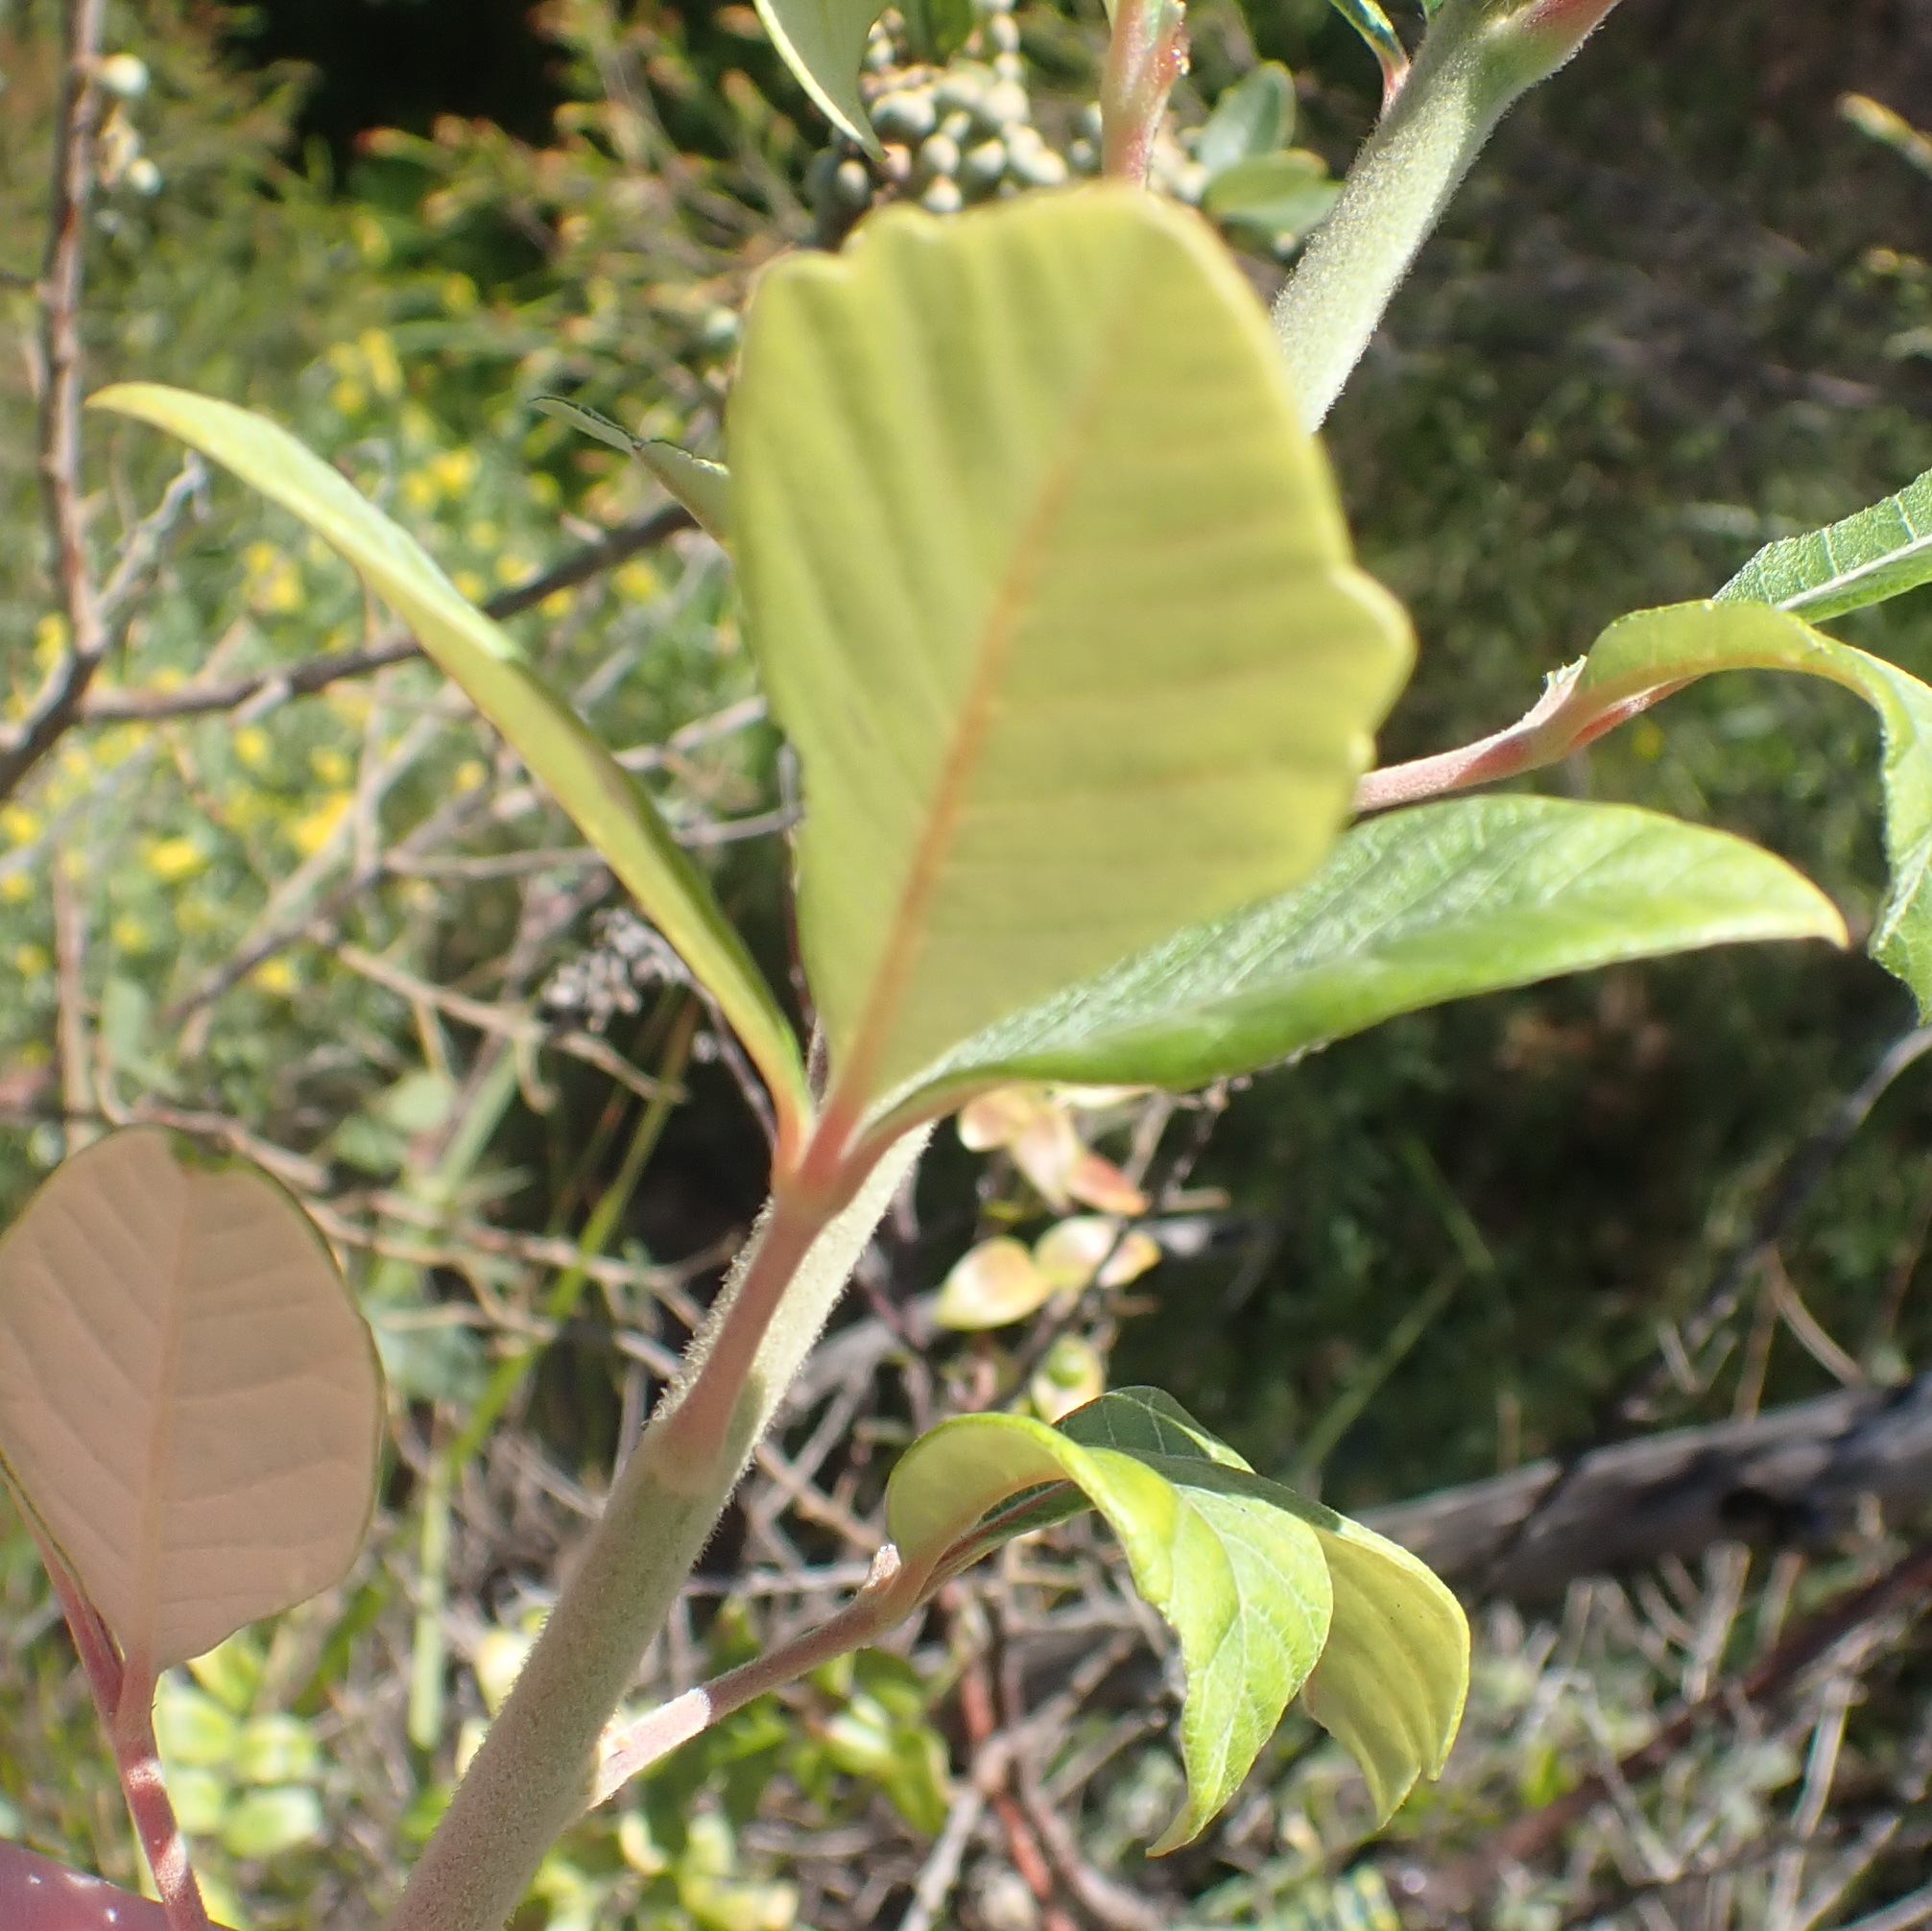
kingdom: Plantae
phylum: Tracheophyta
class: Magnoliopsida
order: Sapindales
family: Anacardiaceae
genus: Searsia
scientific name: Searsia tomentosa
